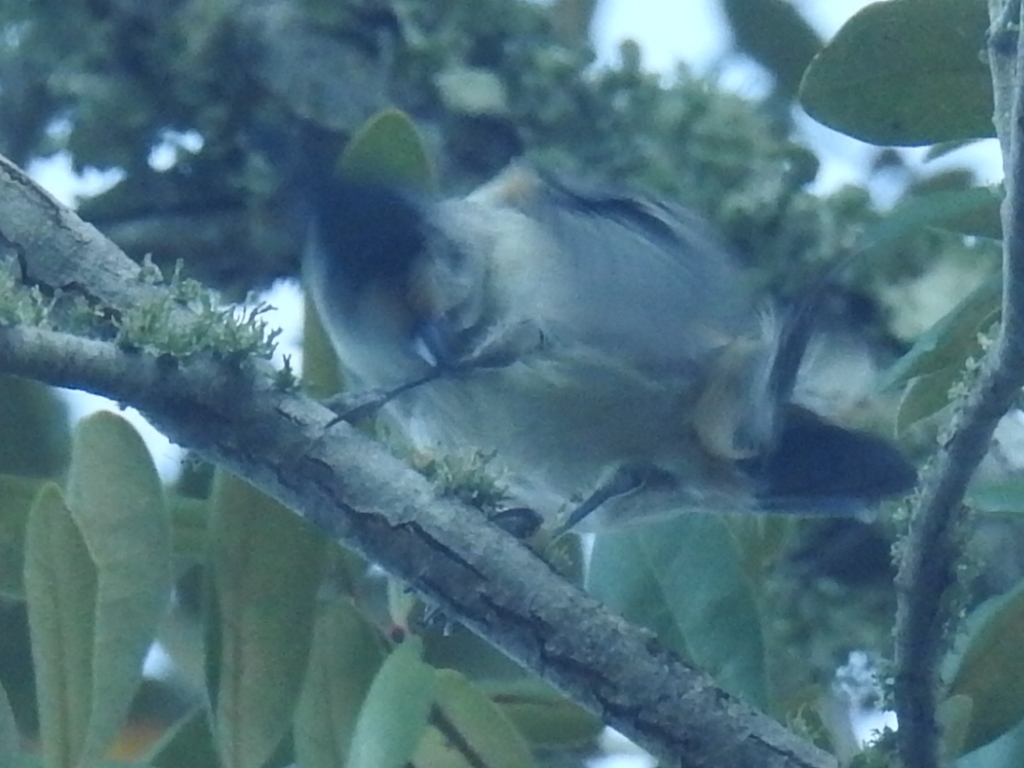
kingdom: Animalia
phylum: Chordata
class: Aves
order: Passeriformes
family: Paridae
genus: Baeolophus
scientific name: Baeolophus atricristatus
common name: Black-crested titmouse
